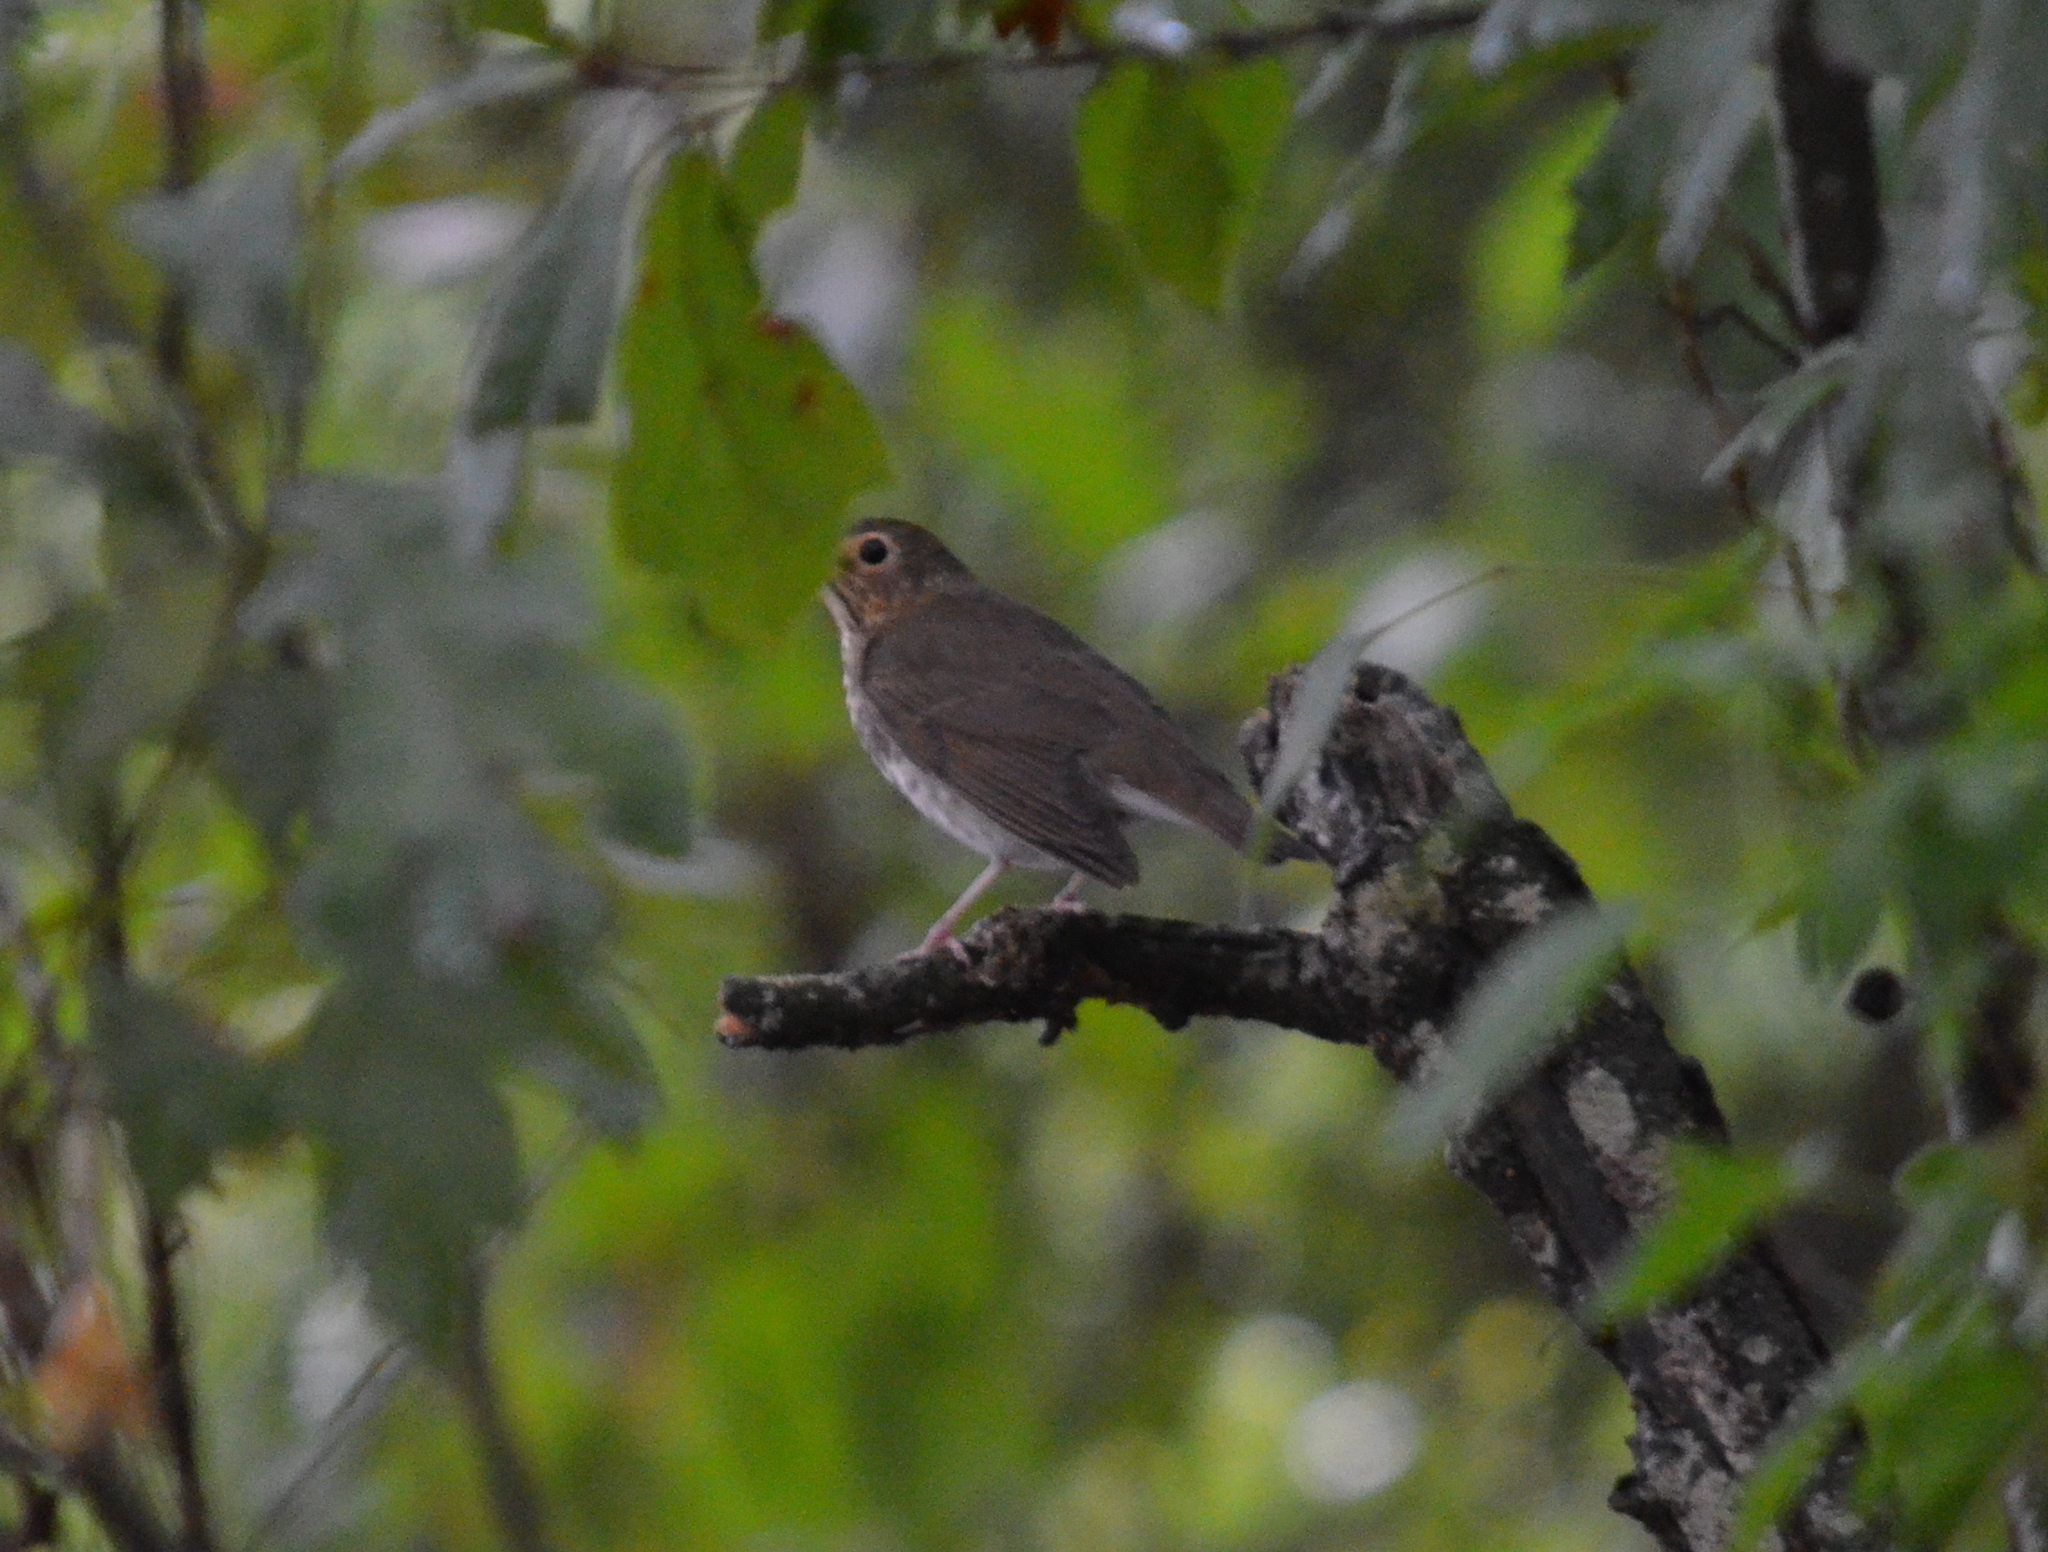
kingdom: Animalia
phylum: Chordata
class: Aves
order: Passeriformes
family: Turdidae
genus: Catharus
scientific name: Catharus ustulatus
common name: Swainson's thrush
